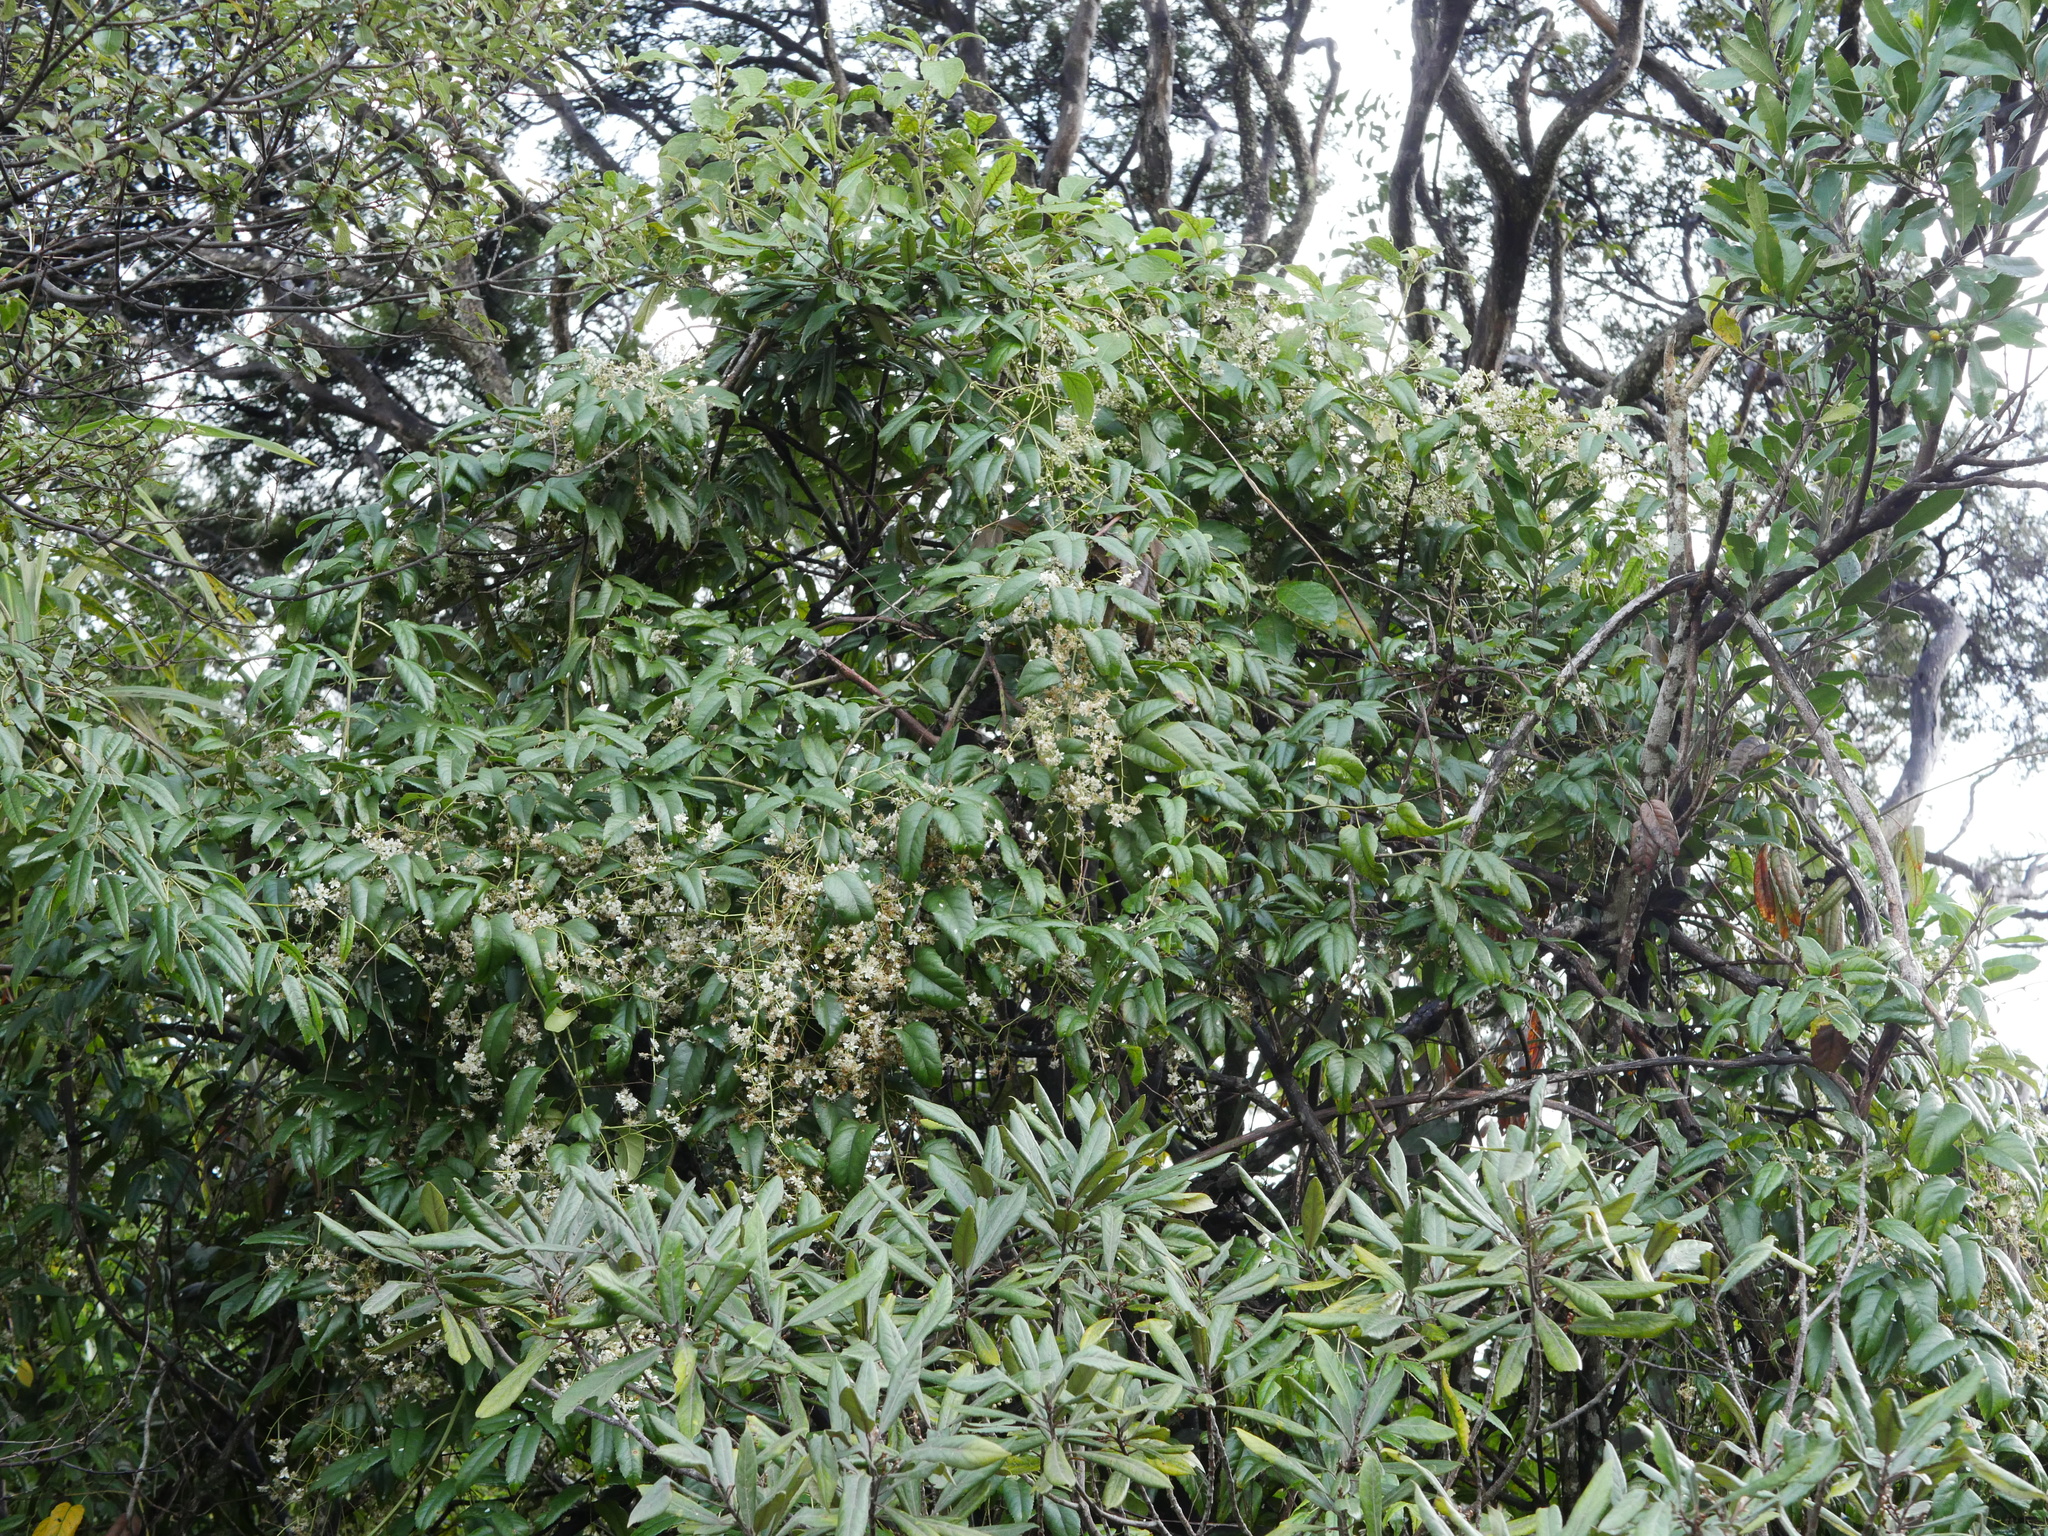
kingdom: Plantae
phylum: Tracheophyta
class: Magnoliopsida
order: Rosales
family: Rosaceae
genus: Rubus
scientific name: Rubus cissoides
